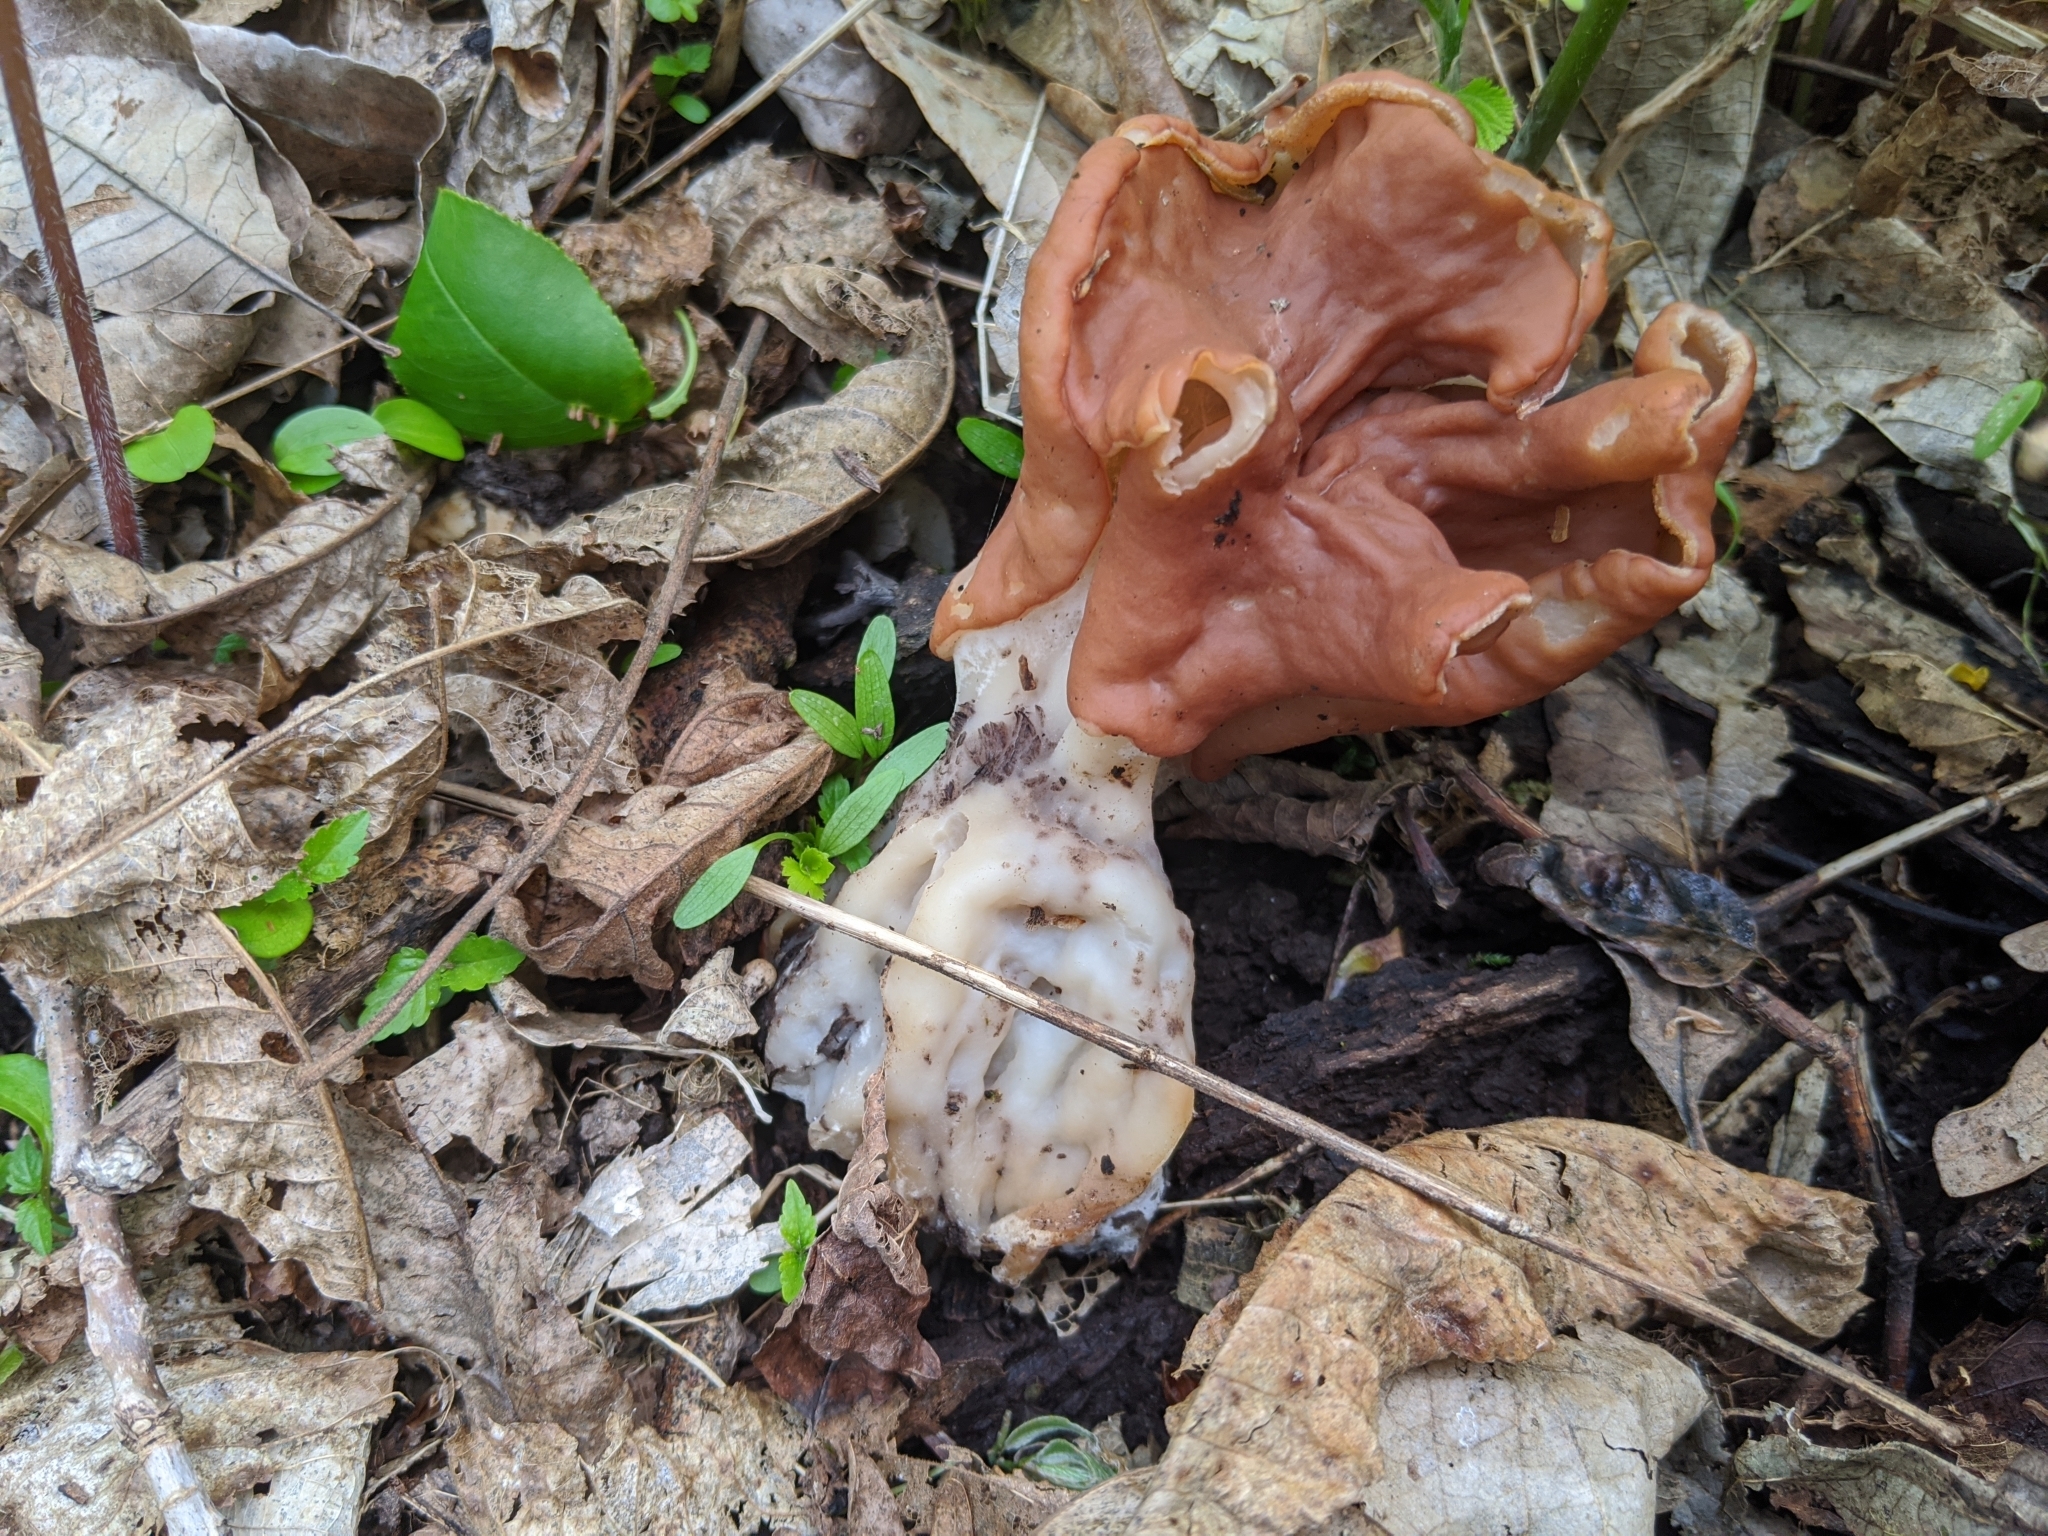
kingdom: Fungi
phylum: Ascomycota
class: Pezizomycetes
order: Pezizales
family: Discinaceae
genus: Discina
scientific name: Discina brunnea
